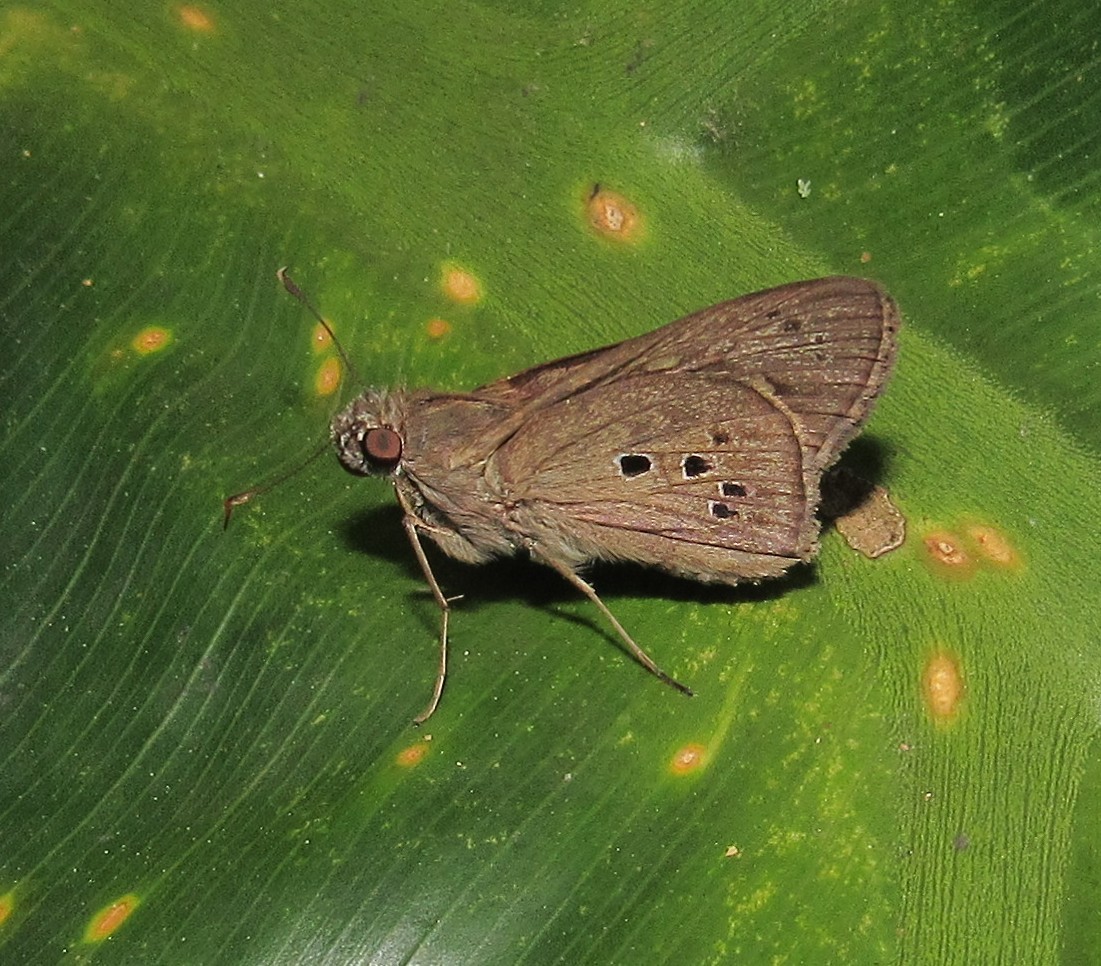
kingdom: Animalia
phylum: Arthropoda
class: Insecta
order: Lepidoptera
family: Hesperiidae
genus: Carystus
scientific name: Carystus
